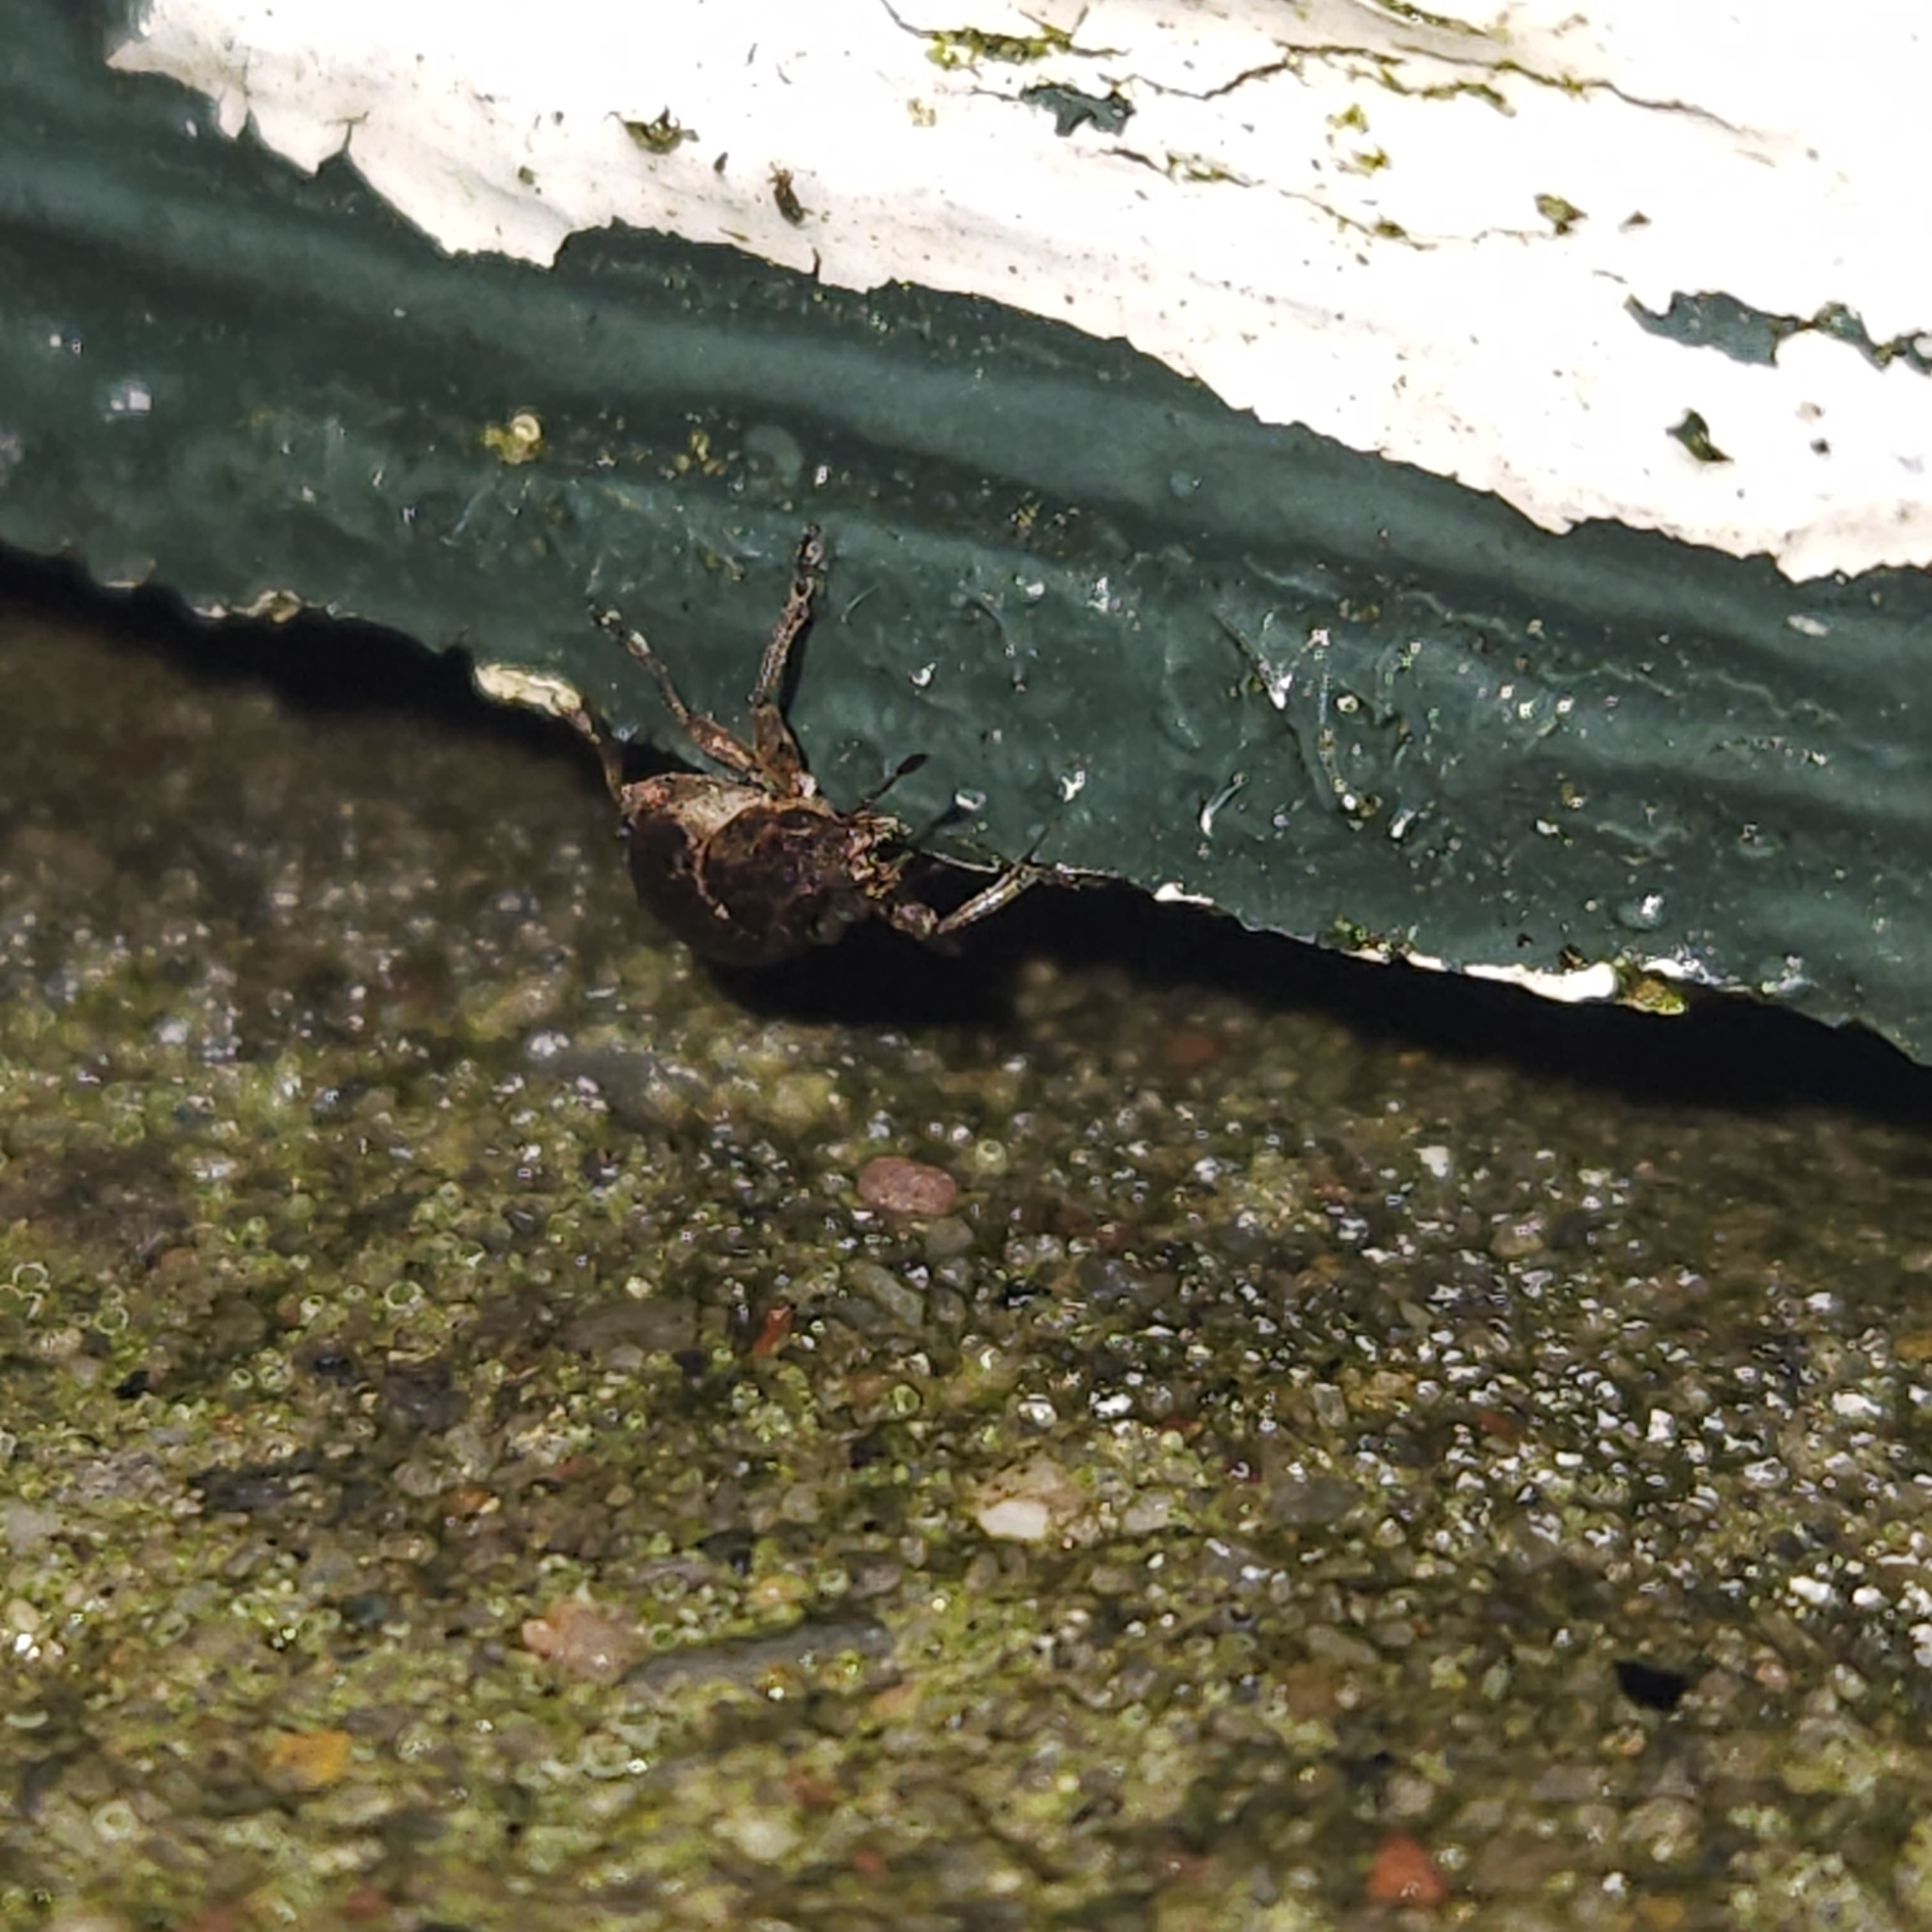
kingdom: Animalia
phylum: Arthropoda
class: Insecta
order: Coleoptera
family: Curculionidae
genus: Sitona
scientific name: Sitona obsoletus
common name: Weevil
